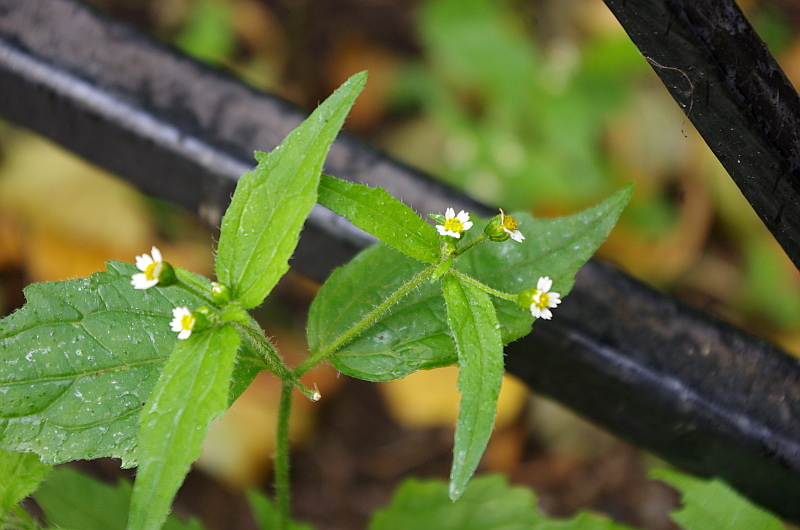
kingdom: Plantae
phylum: Tracheophyta
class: Magnoliopsida
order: Asterales
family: Asteraceae
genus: Galinsoga
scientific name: Galinsoga quadriradiata
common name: Shaggy soldier
